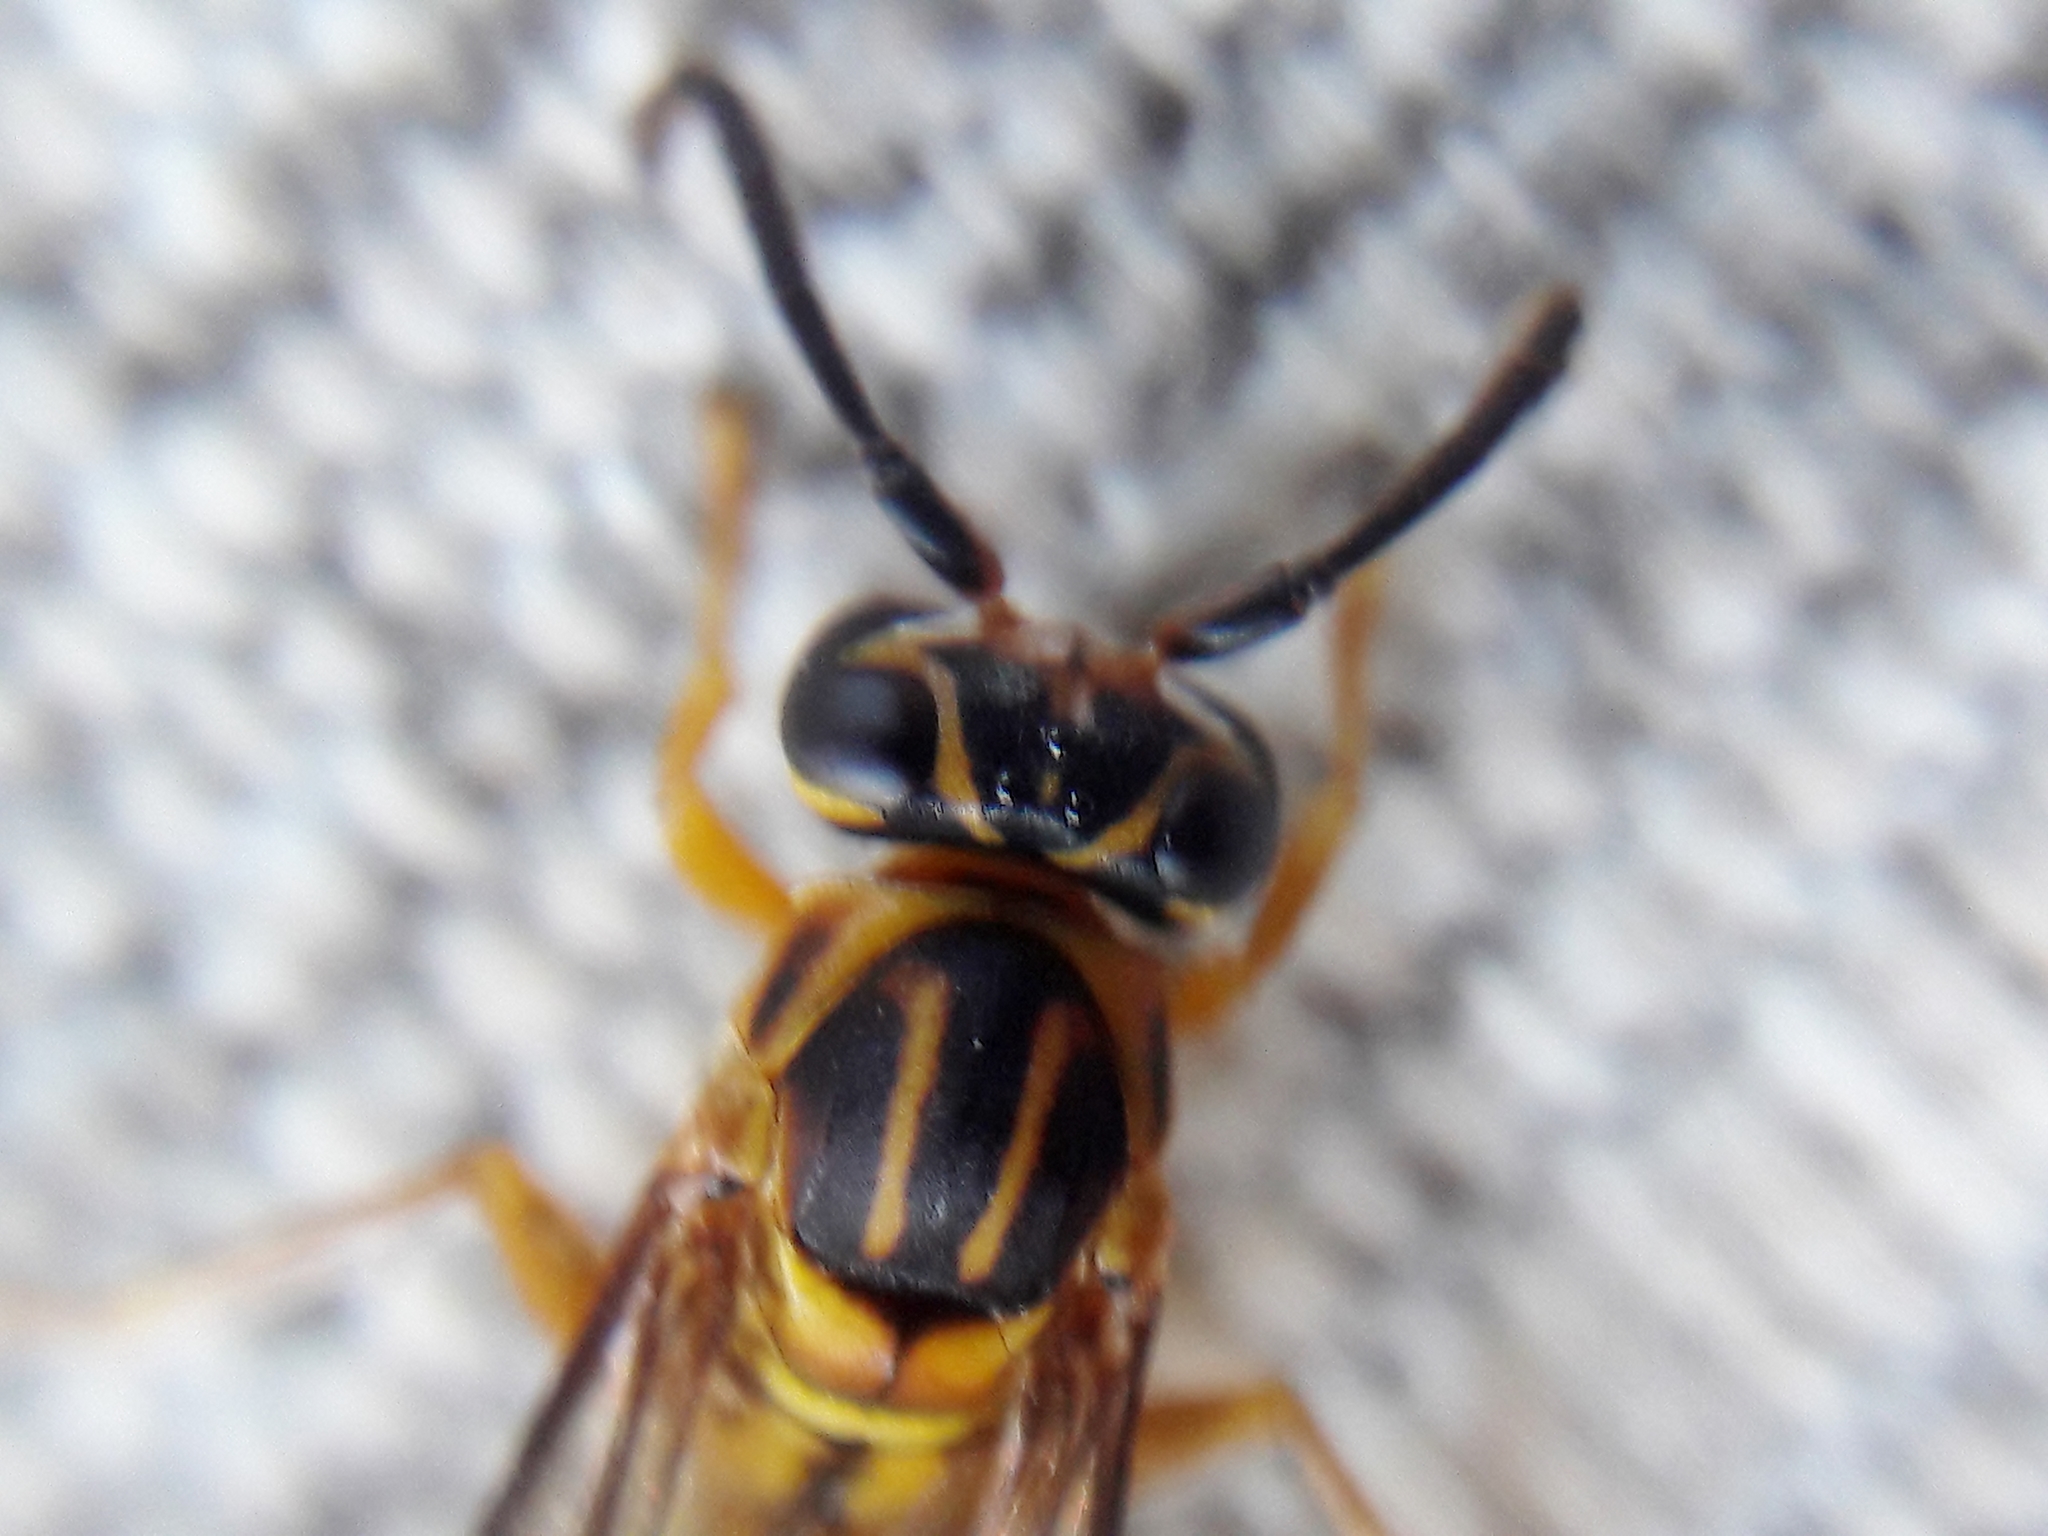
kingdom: Animalia
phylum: Arthropoda
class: Insecta
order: Hymenoptera
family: Vespidae
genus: Mischocyttarus
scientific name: Mischocyttarus cerberus
